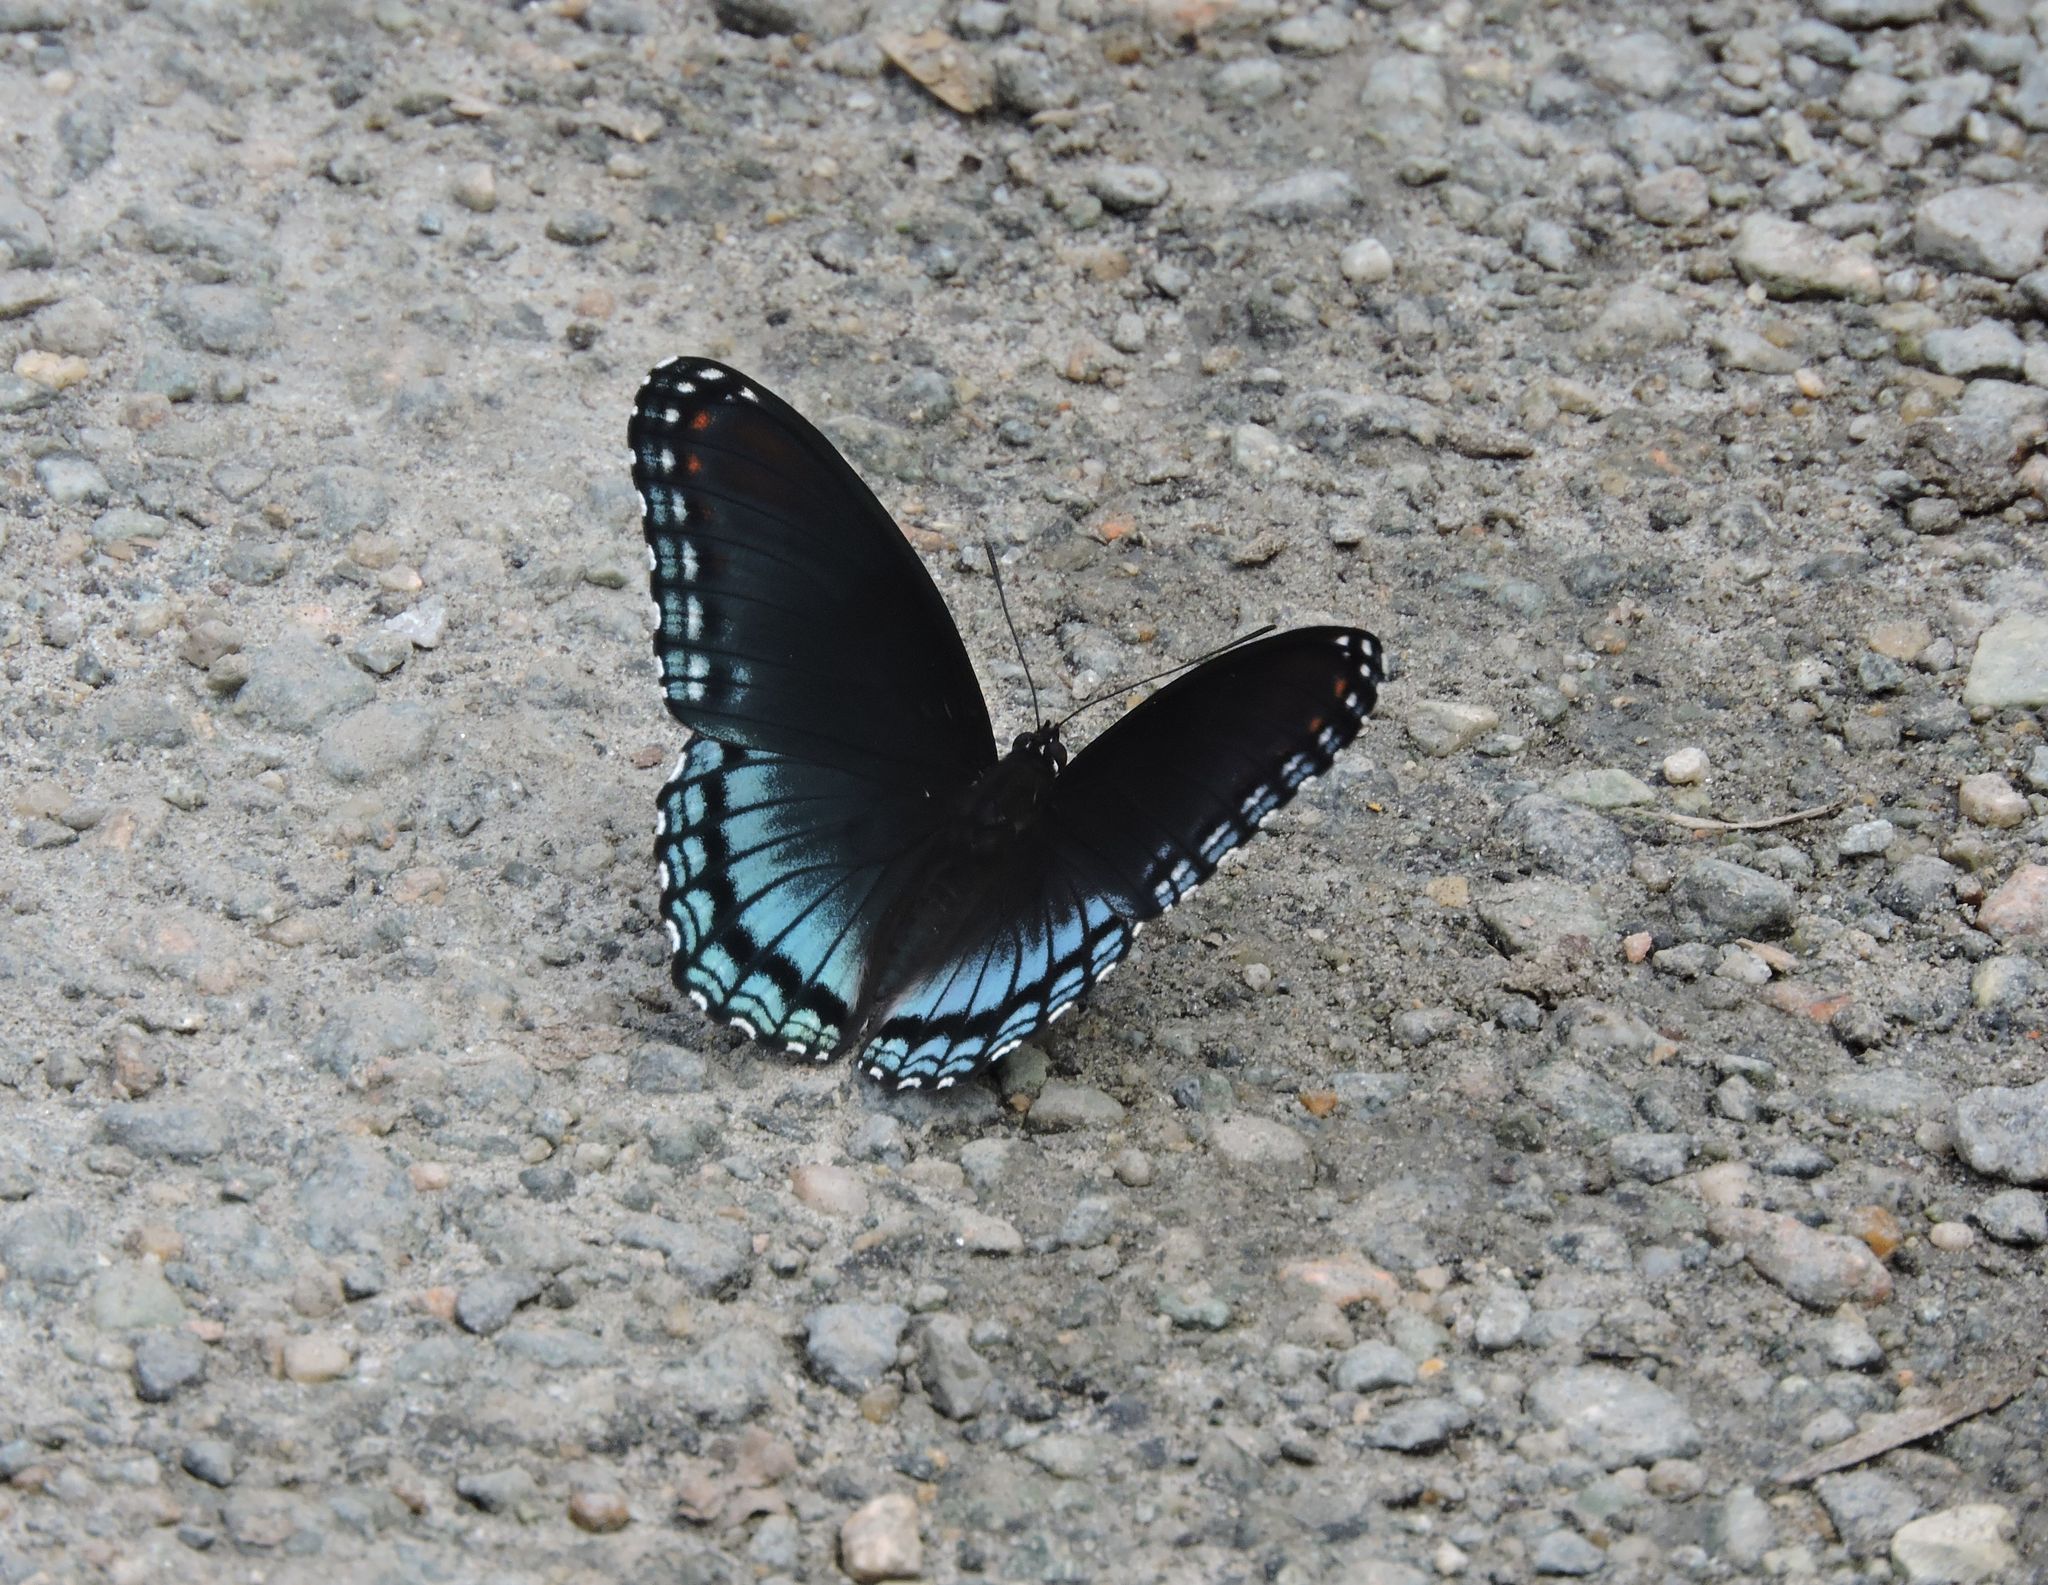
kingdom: Animalia
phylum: Arthropoda
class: Insecta
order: Lepidoptera
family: Nymphalidae
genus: Limenitis
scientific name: Limenitis astyanax
